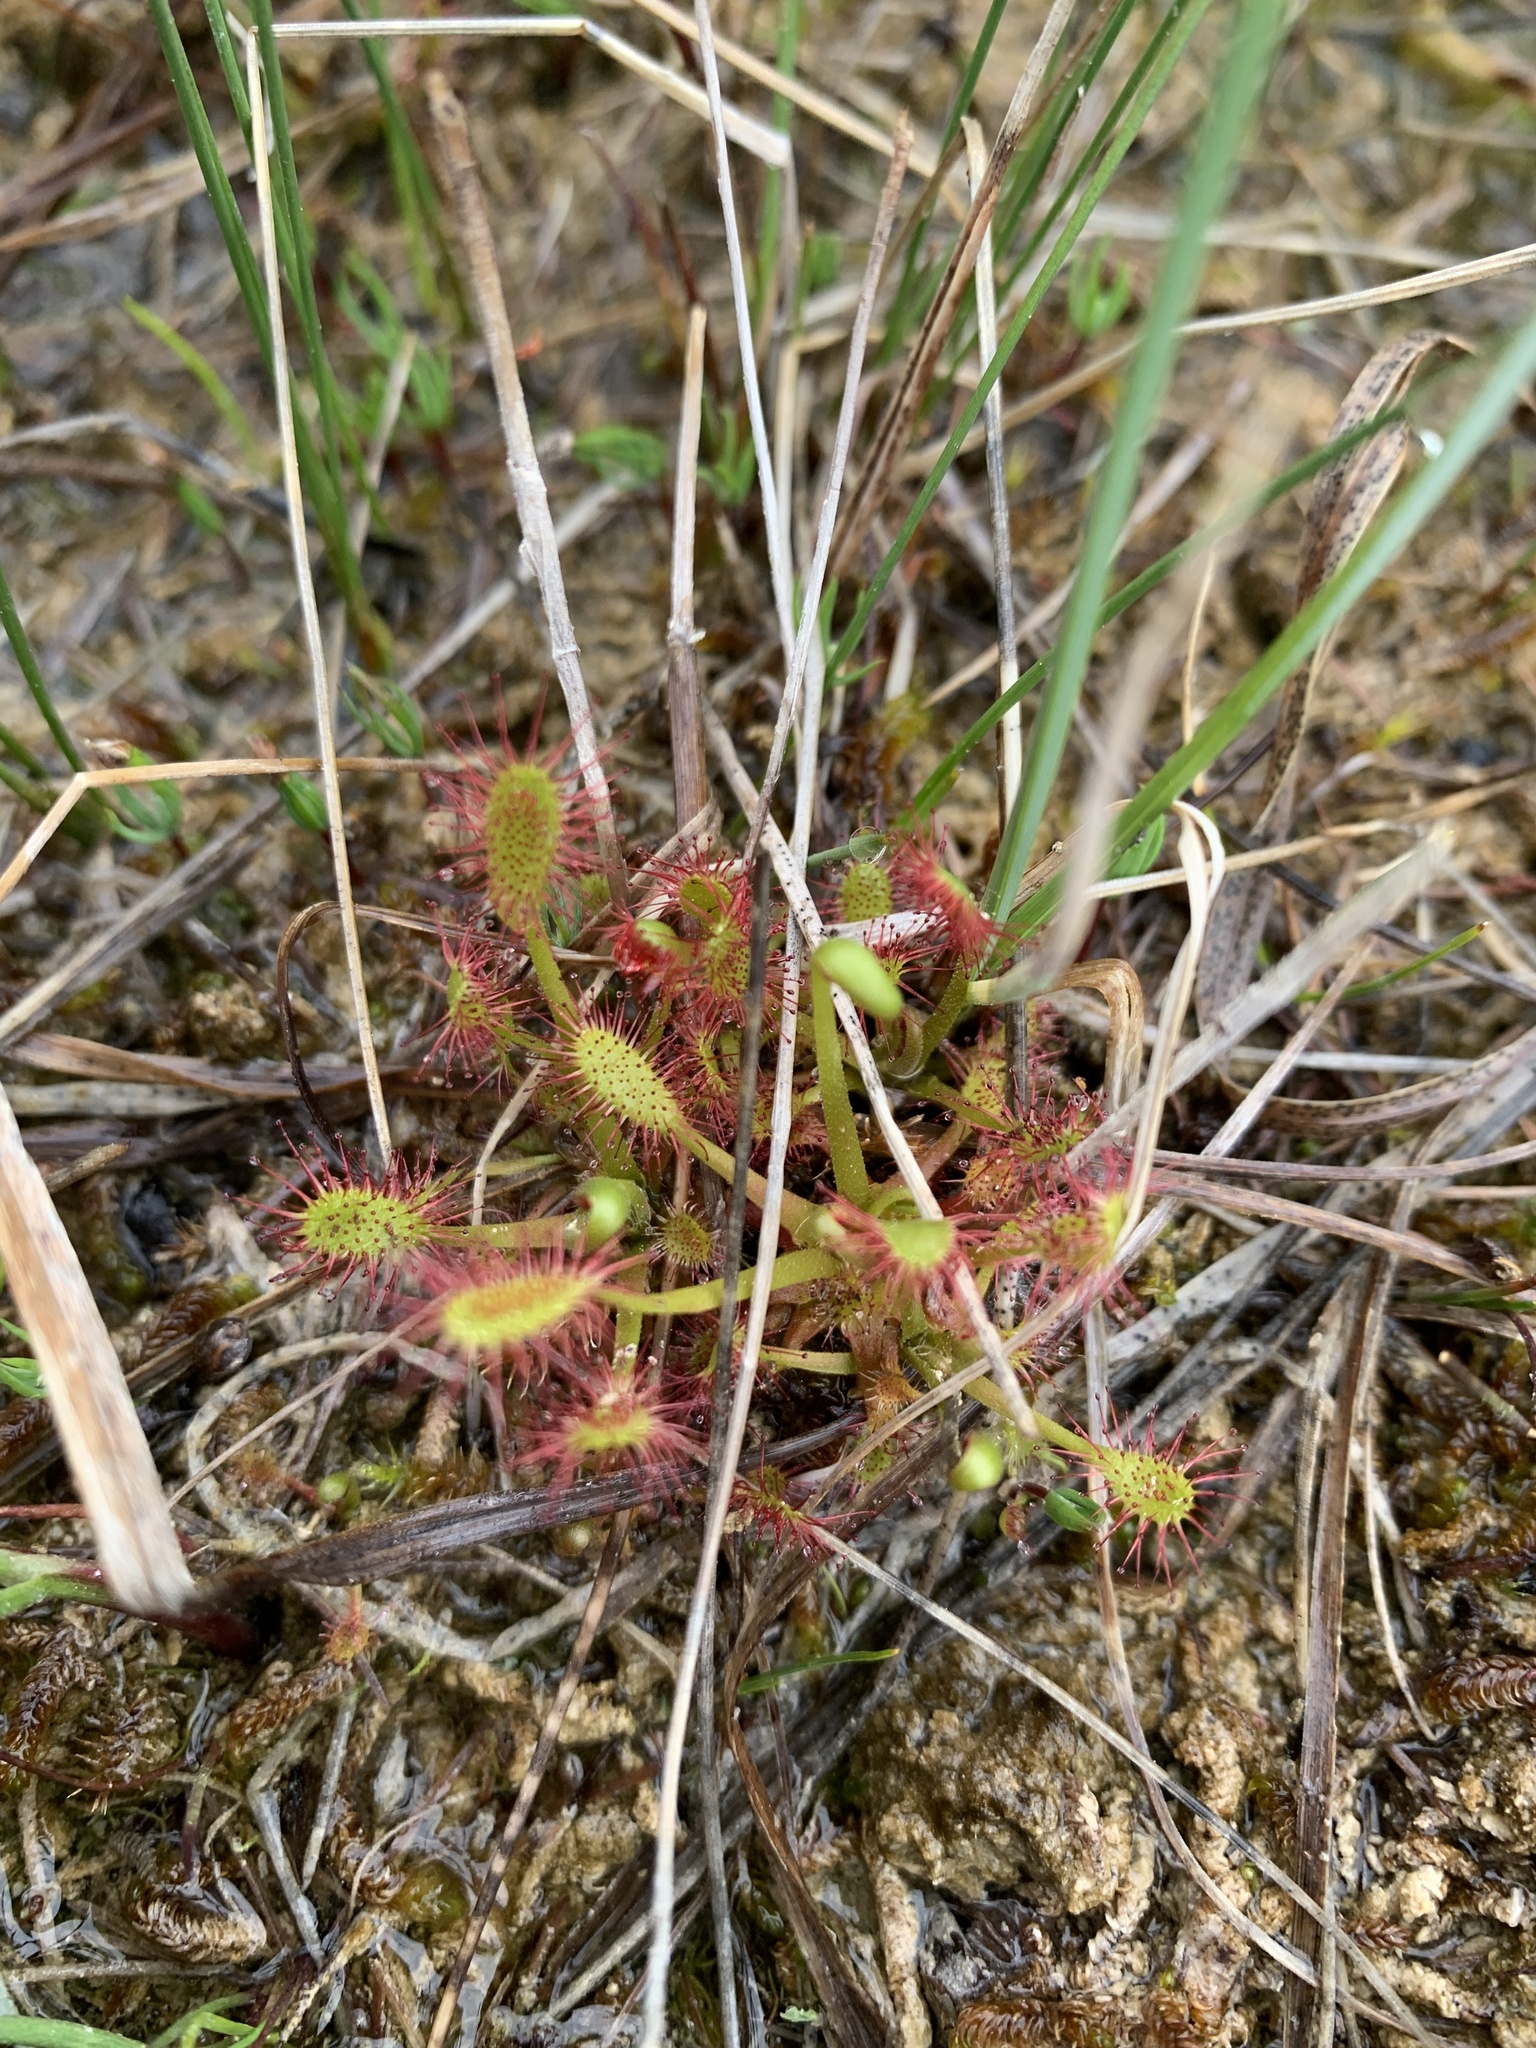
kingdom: Plantae
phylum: Tracheophyta
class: Magnoliopsida
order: Caryophyllales
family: Droseraceae
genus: Drosera
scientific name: Drosera anglica
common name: Great sundew
